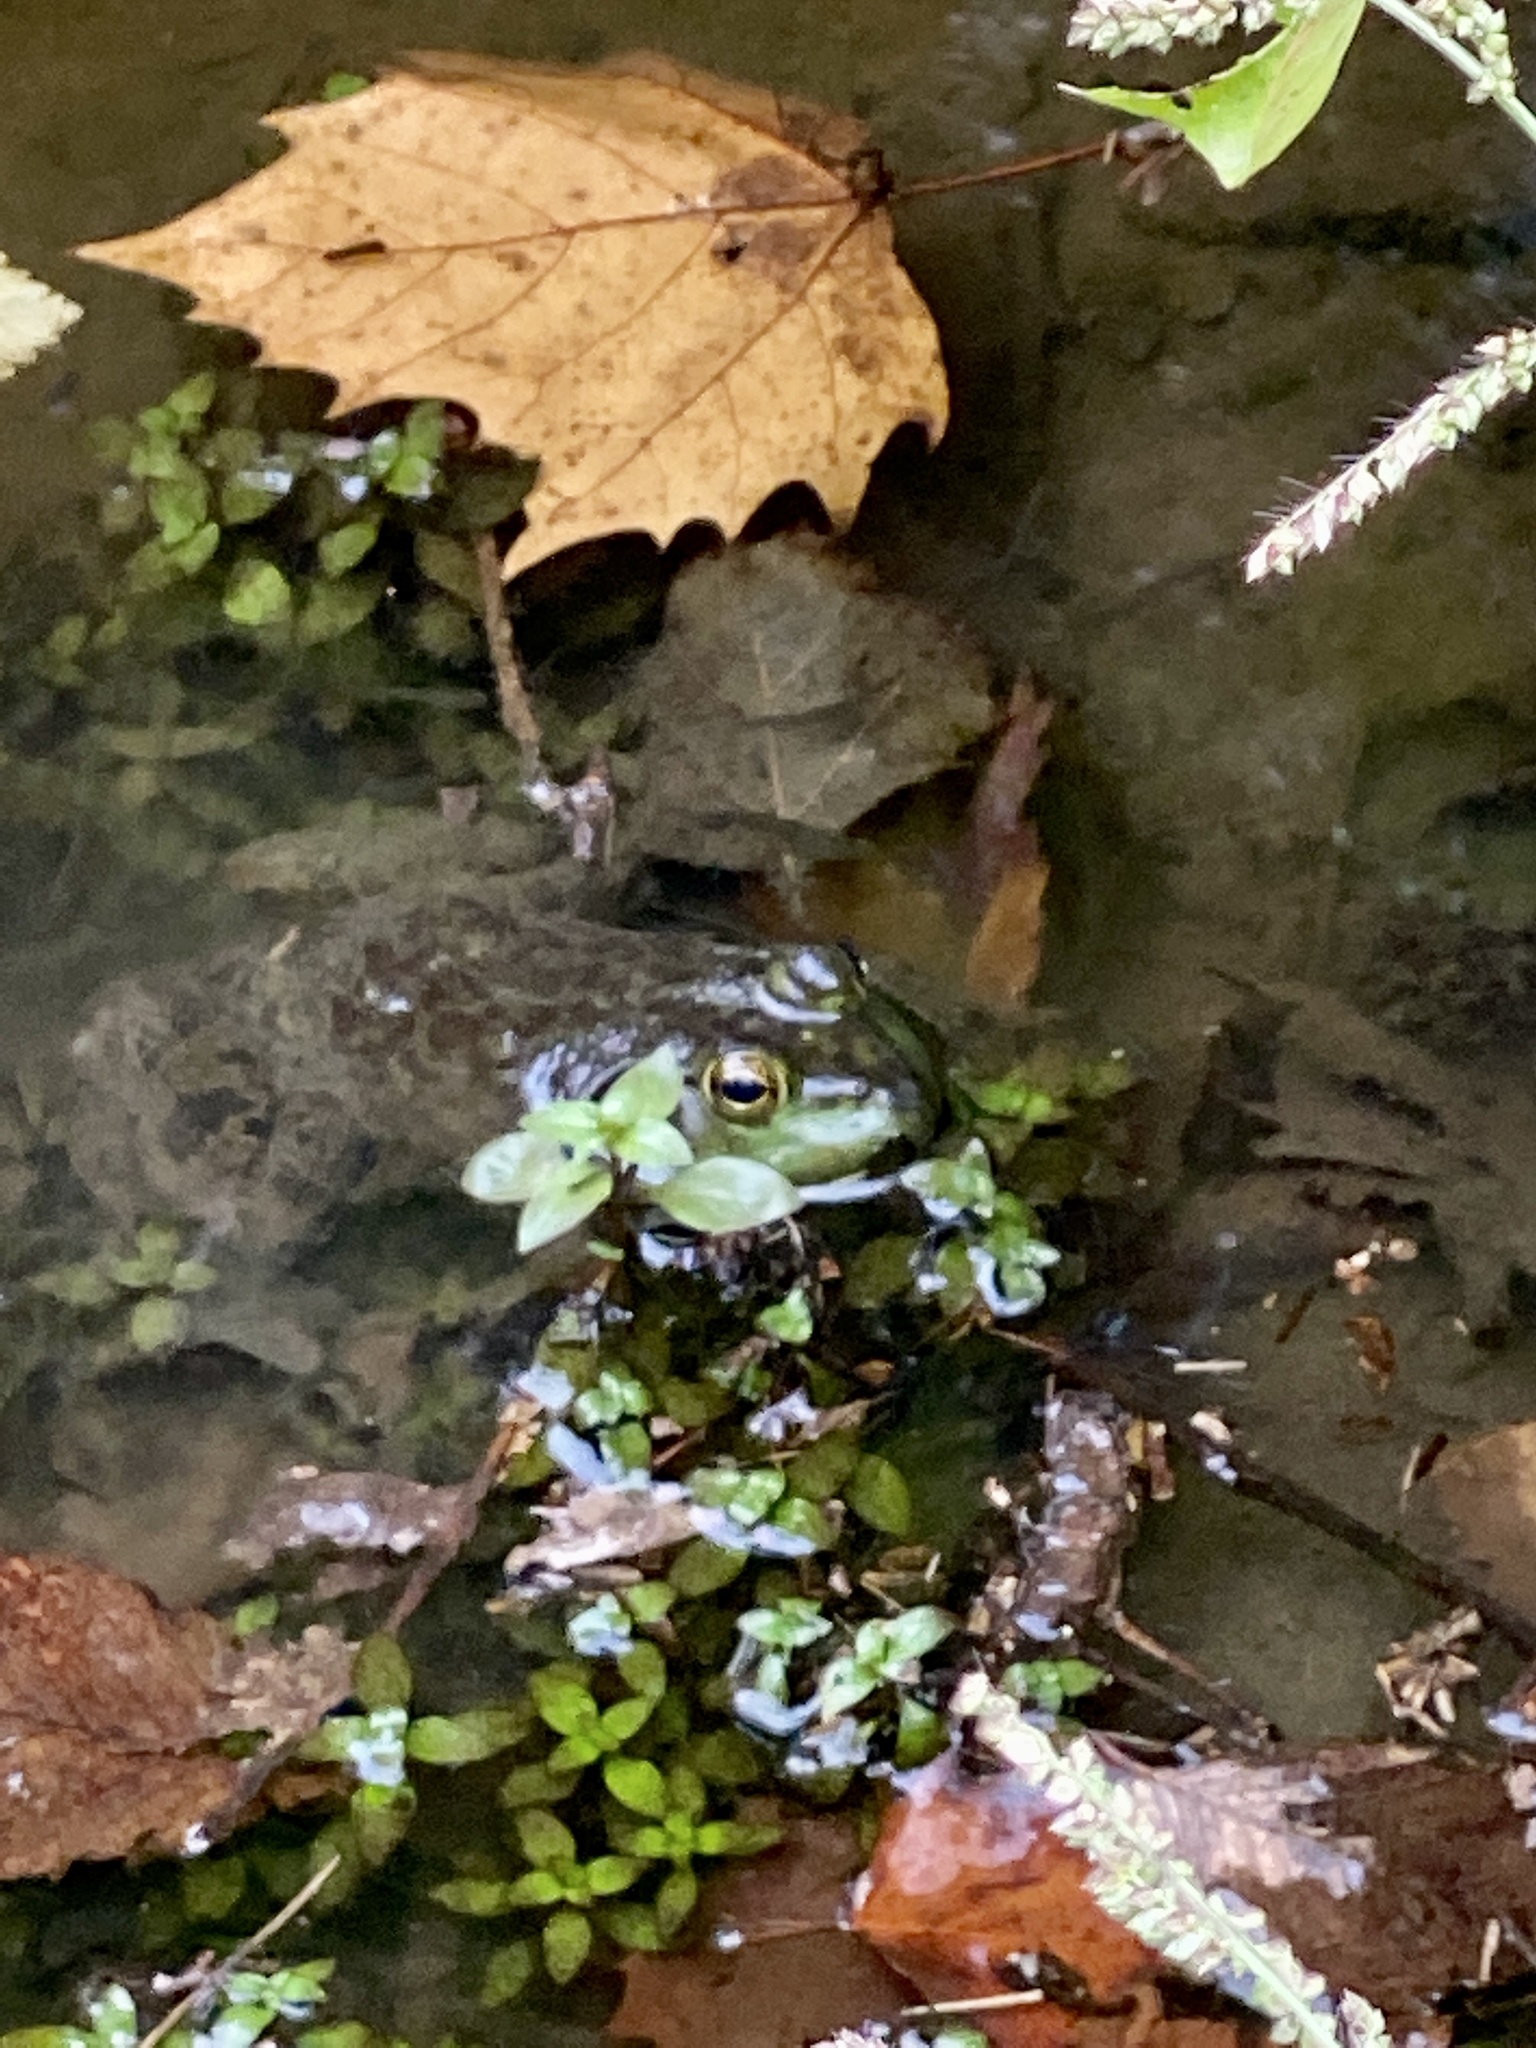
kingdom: Animalia
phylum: Chordata
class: Amphibia
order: Anura
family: Ranidae
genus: Lithobates
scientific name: Lithobates catesbeianus
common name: American bullfrog
